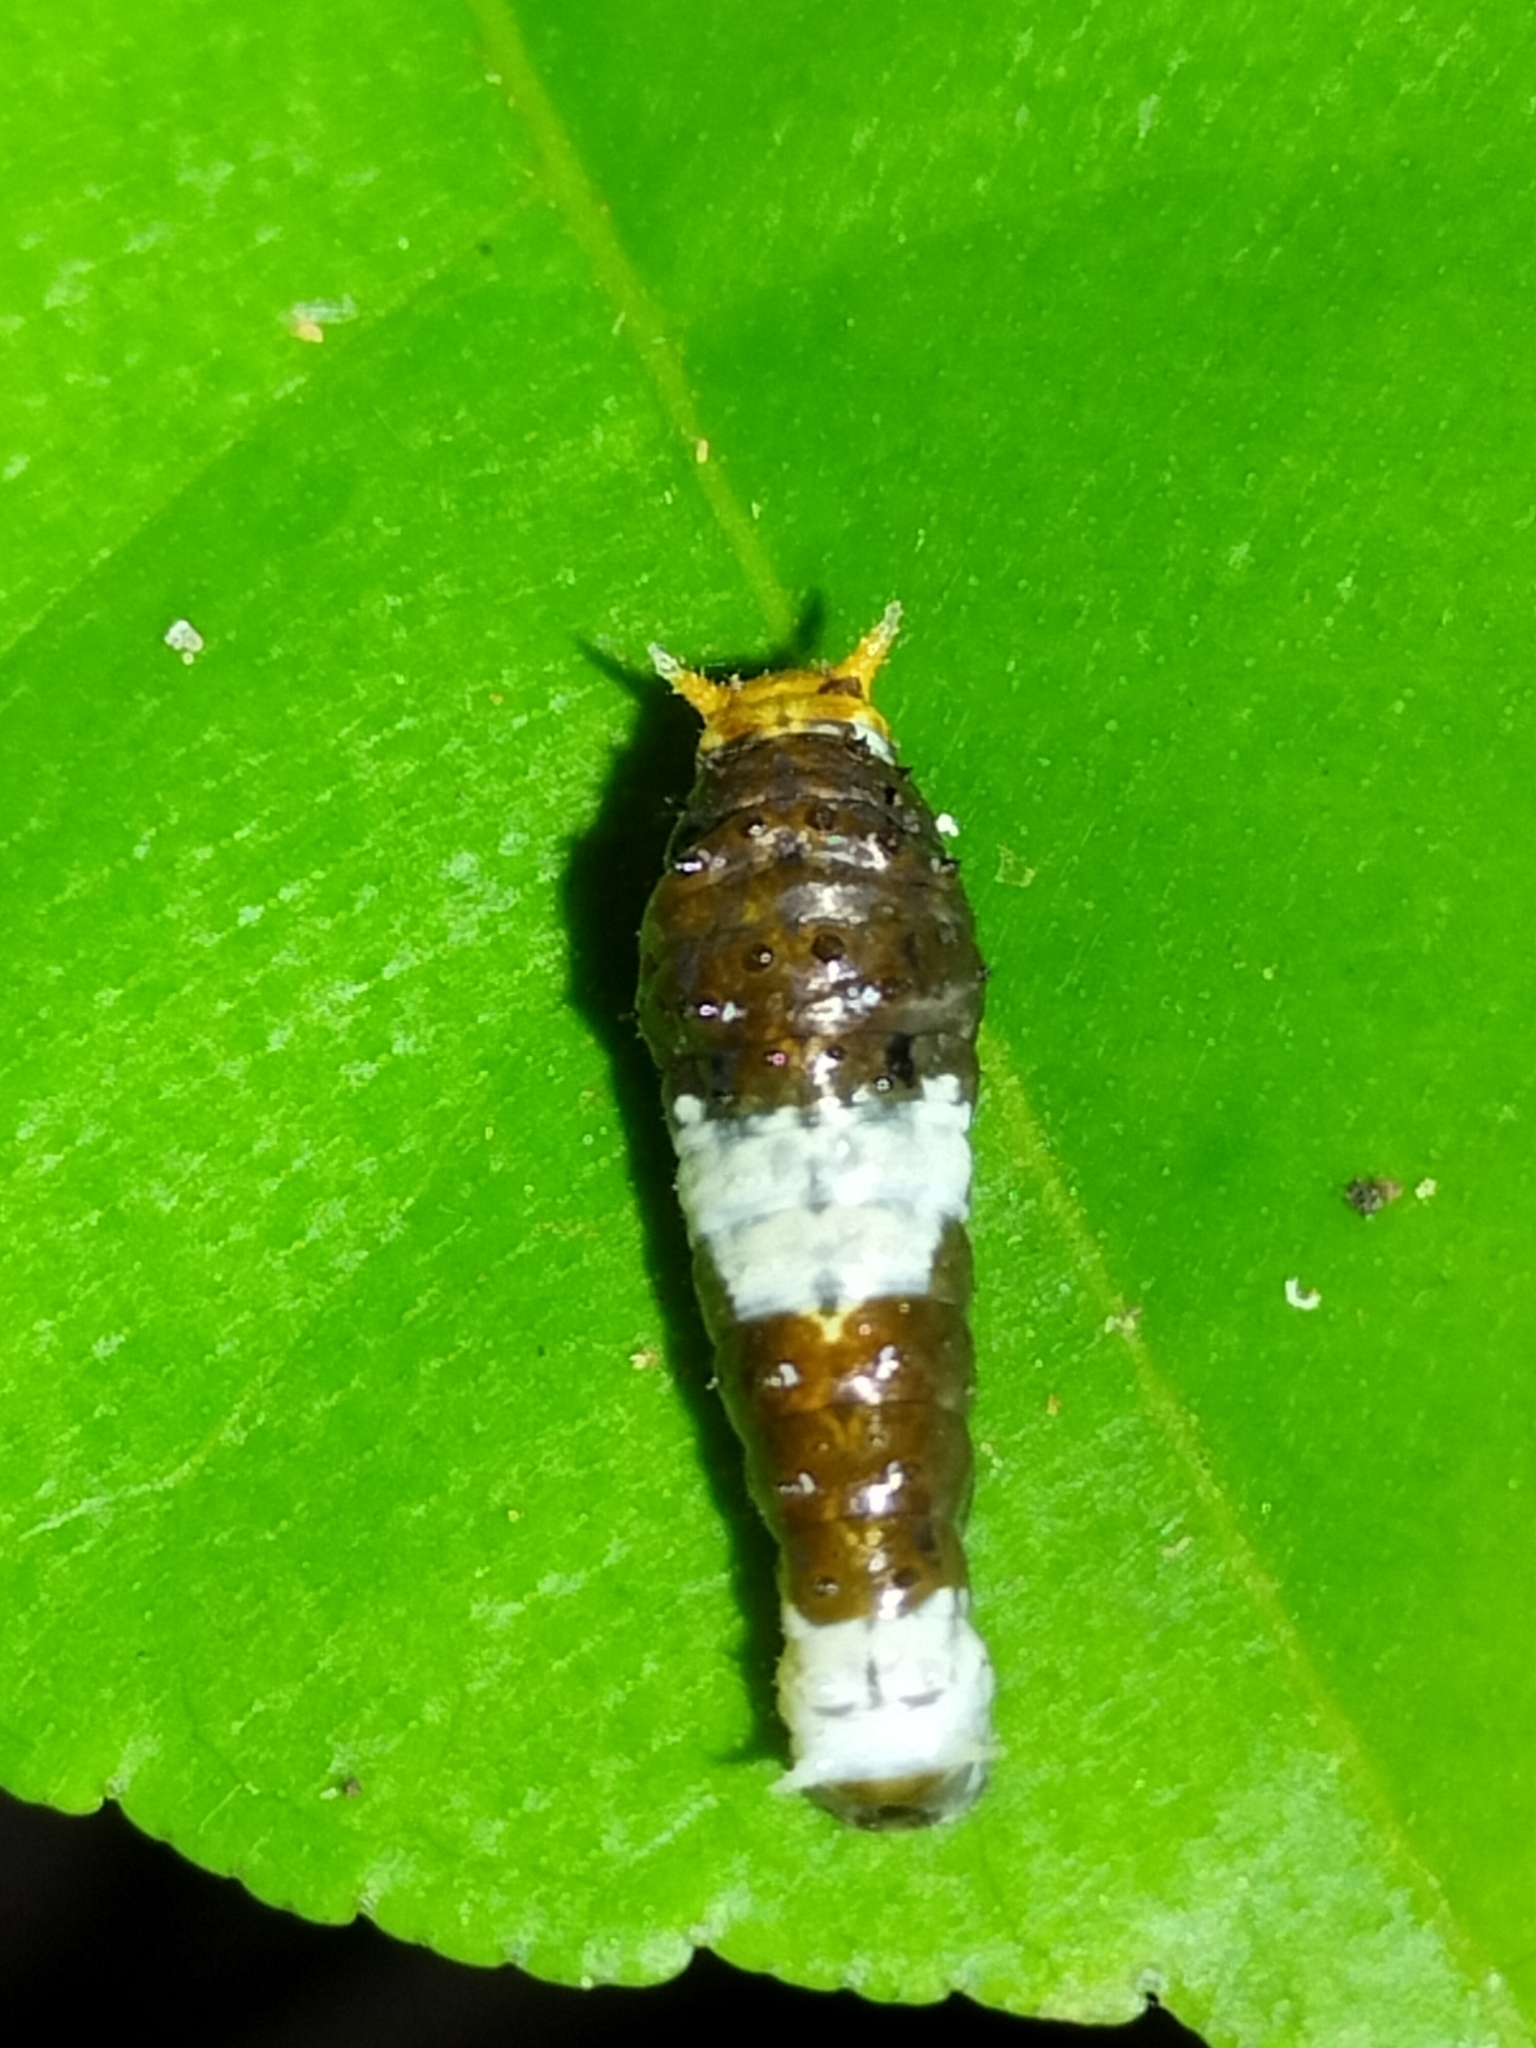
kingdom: Animalia
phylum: Arthropoda
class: Insecta
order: Lepidoptera
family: Papilionidae
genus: Papilio
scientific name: Papilio aegeus
